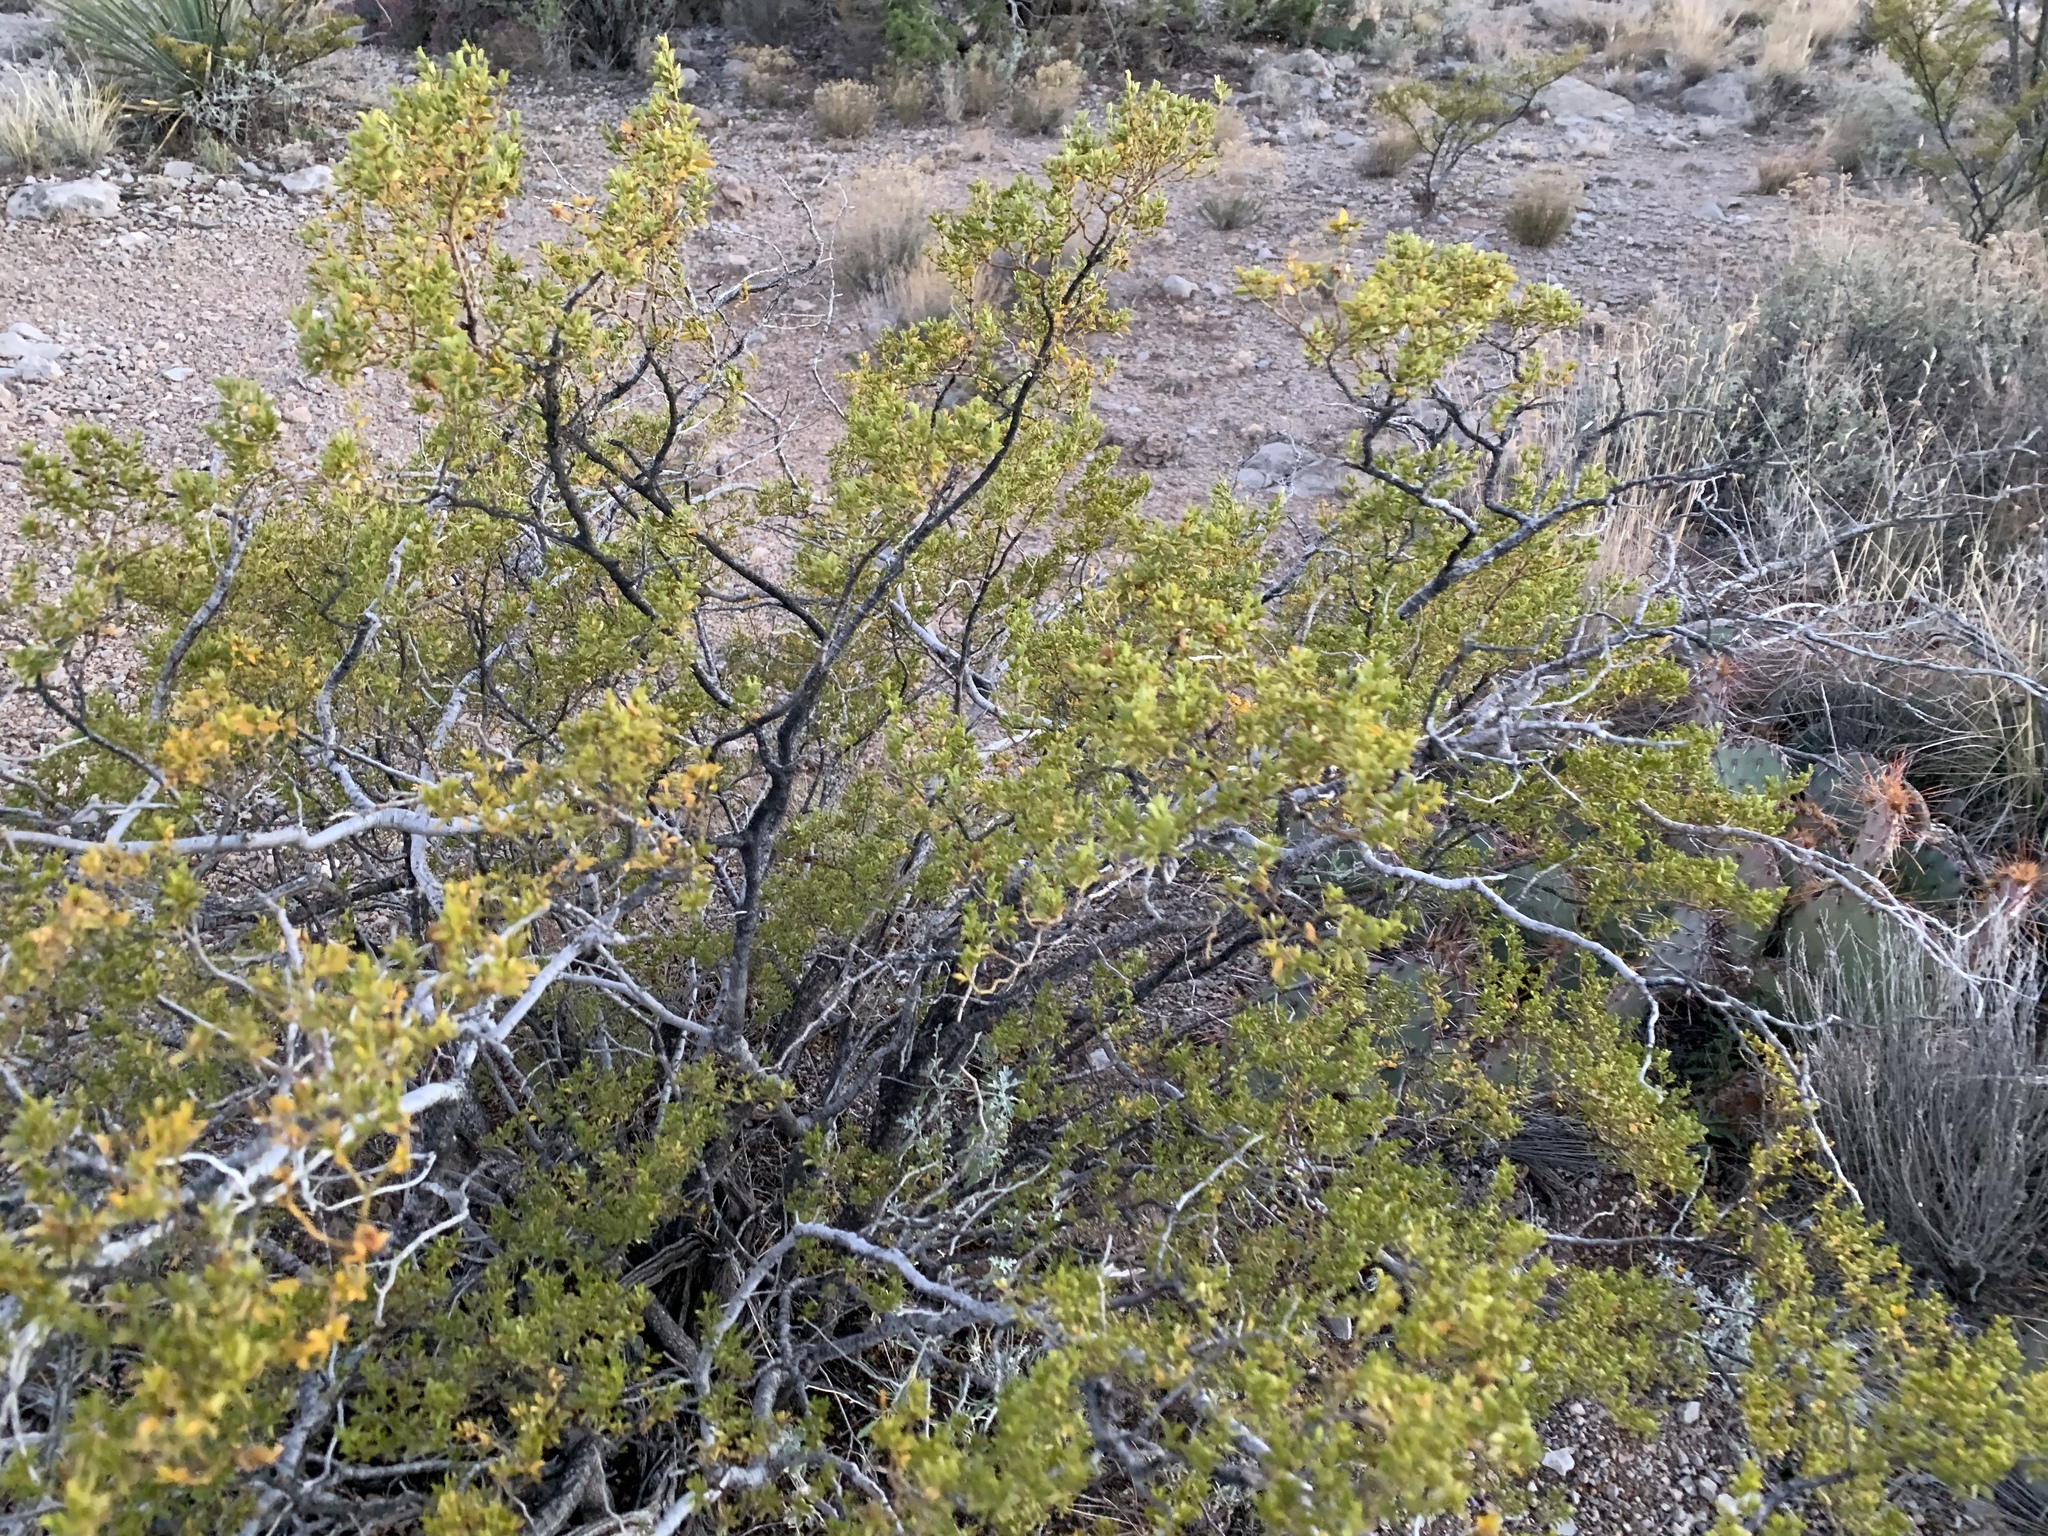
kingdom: Plantae
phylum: Tracheophyta
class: Magnoliopsida
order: Zygophyllales
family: Zygophyllaceae
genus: Larrea
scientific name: Larrea tridentata
